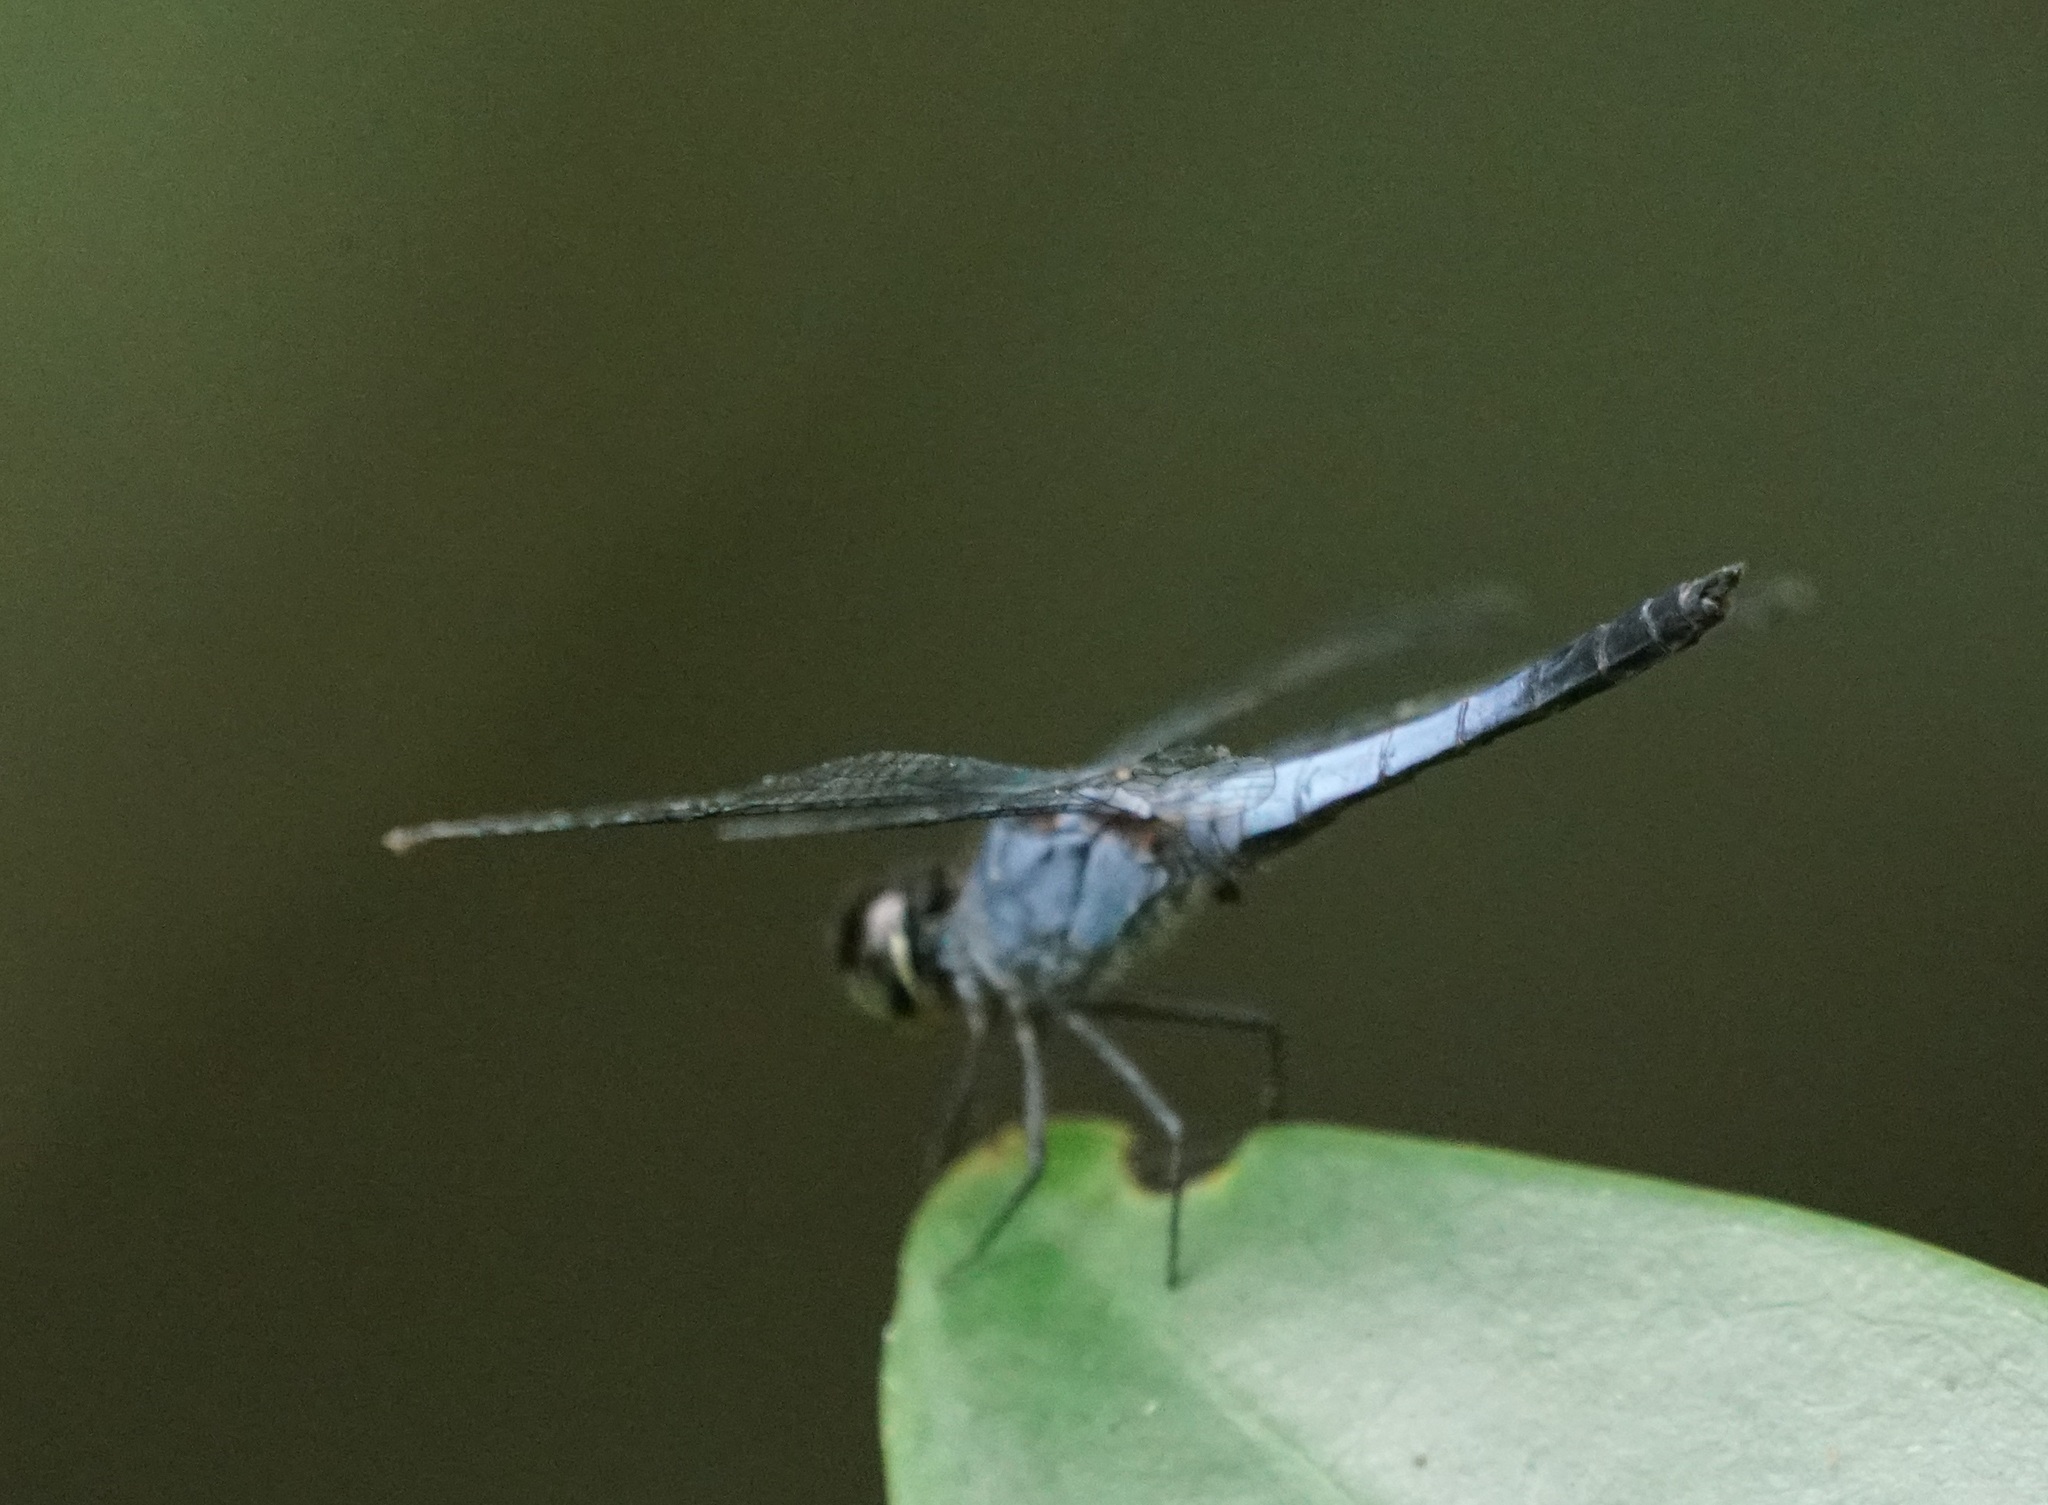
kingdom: Animalia
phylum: Arthropoda
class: Insecta
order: Odonata
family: Libellulidae
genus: Raphismia
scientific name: Raphismia bispina
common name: Mangrove dwarf
